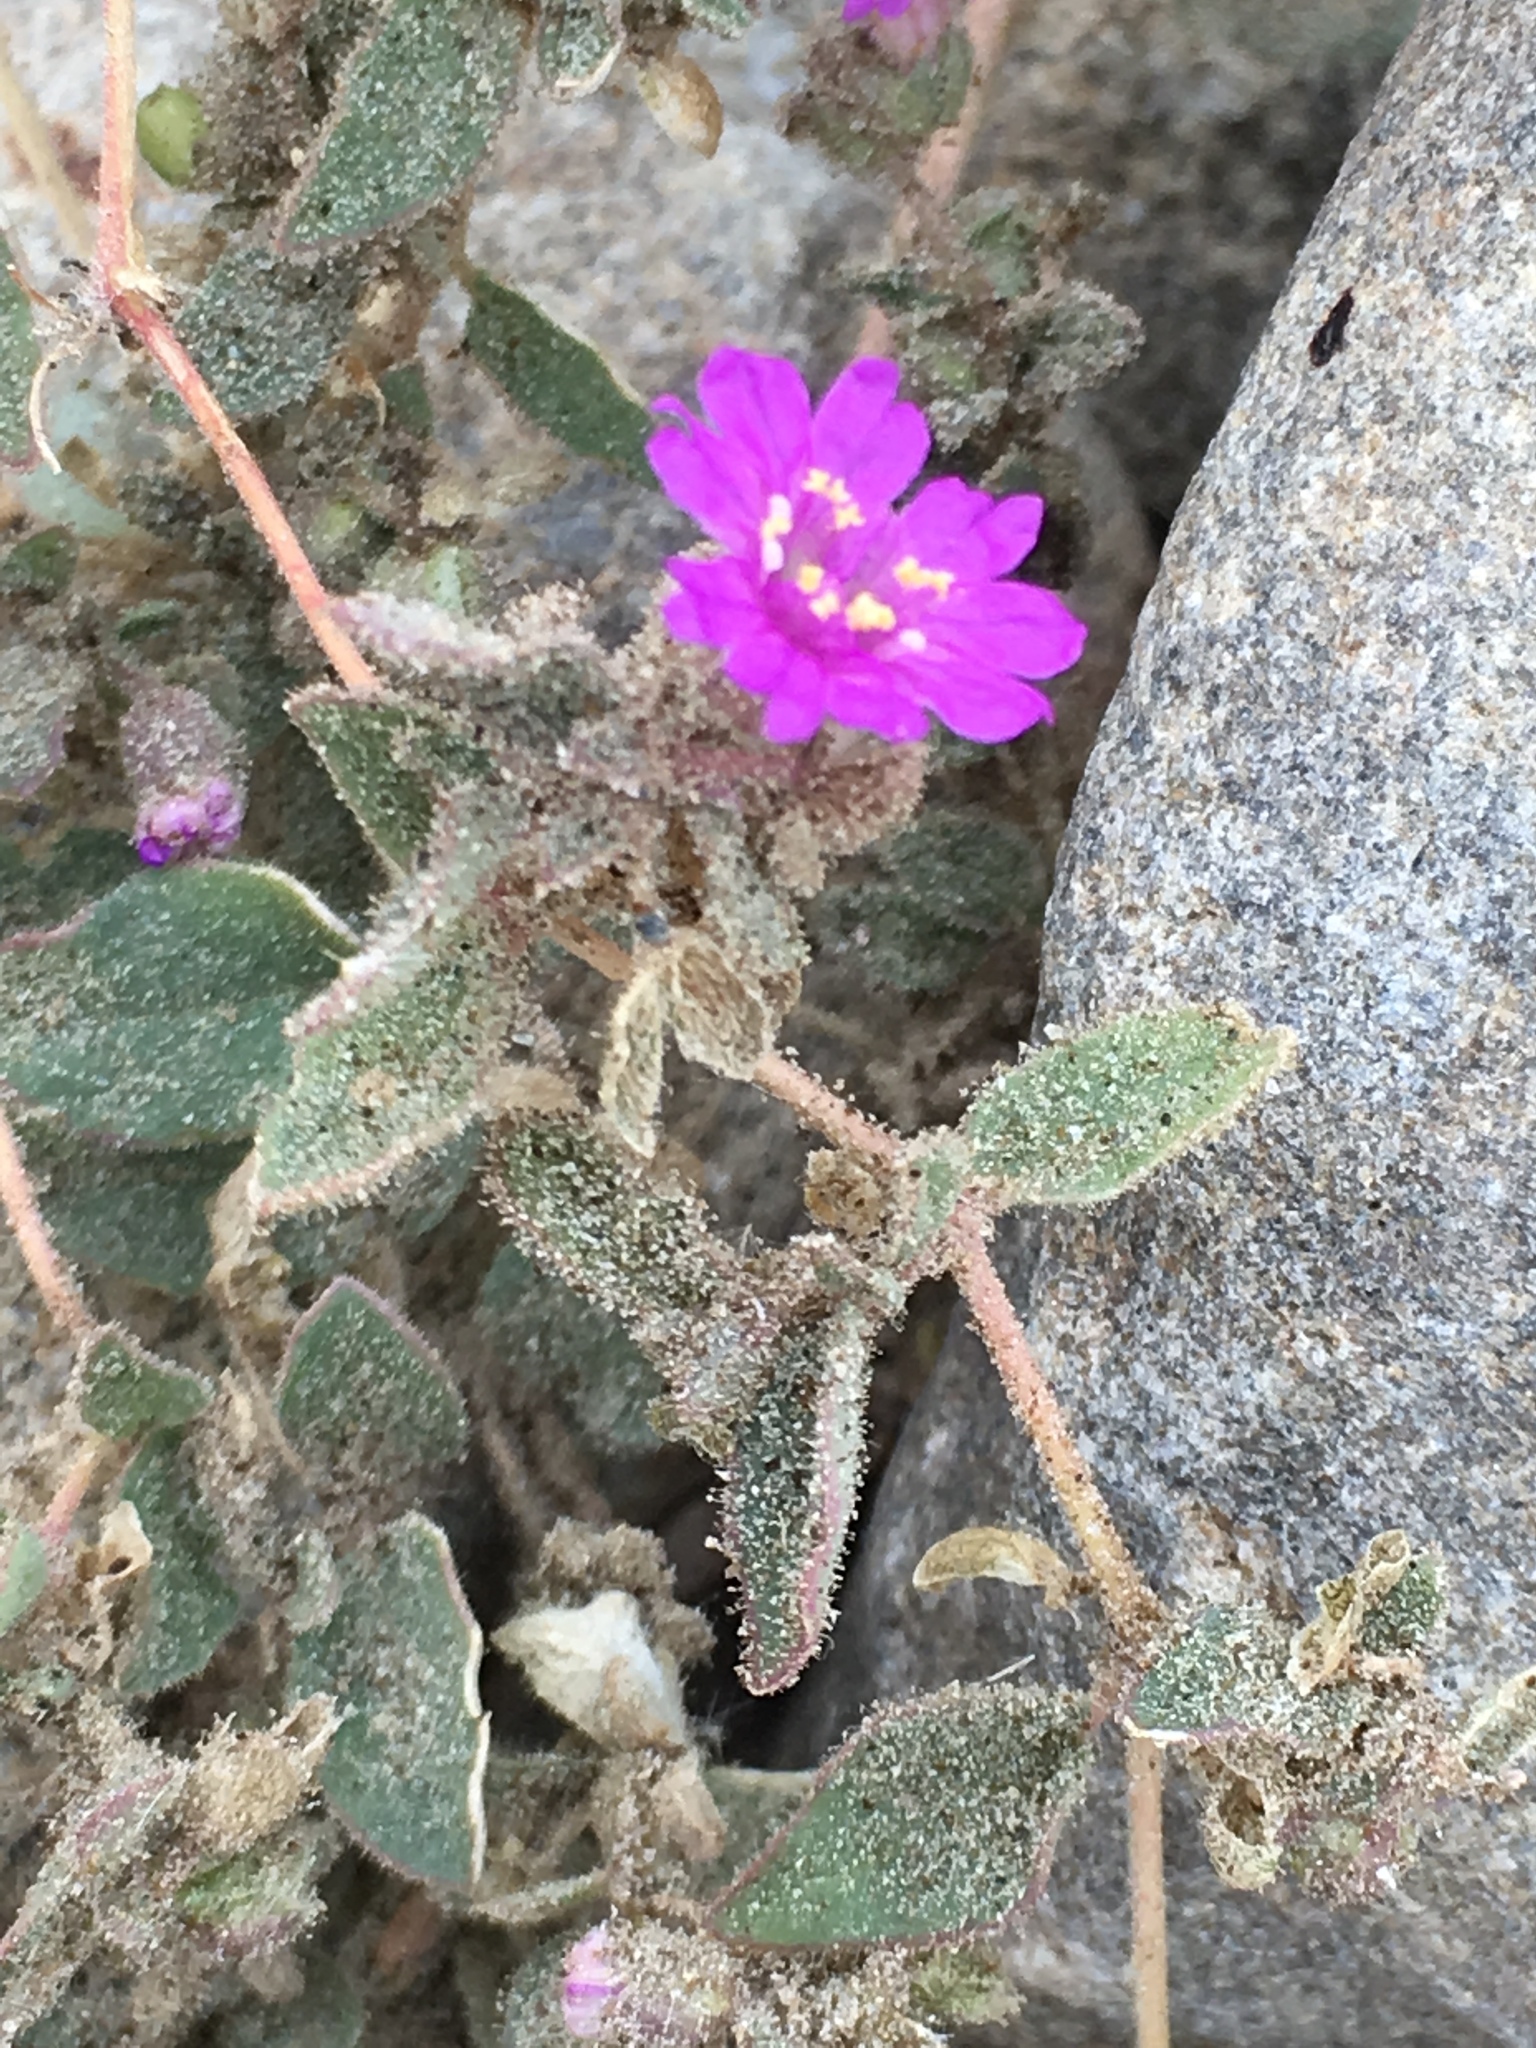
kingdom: Plantae
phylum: Tracheophyta
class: Magnoliopsida
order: Caryophyllales
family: Nyctaginaceae
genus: Allionia
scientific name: Allionia incarnata
